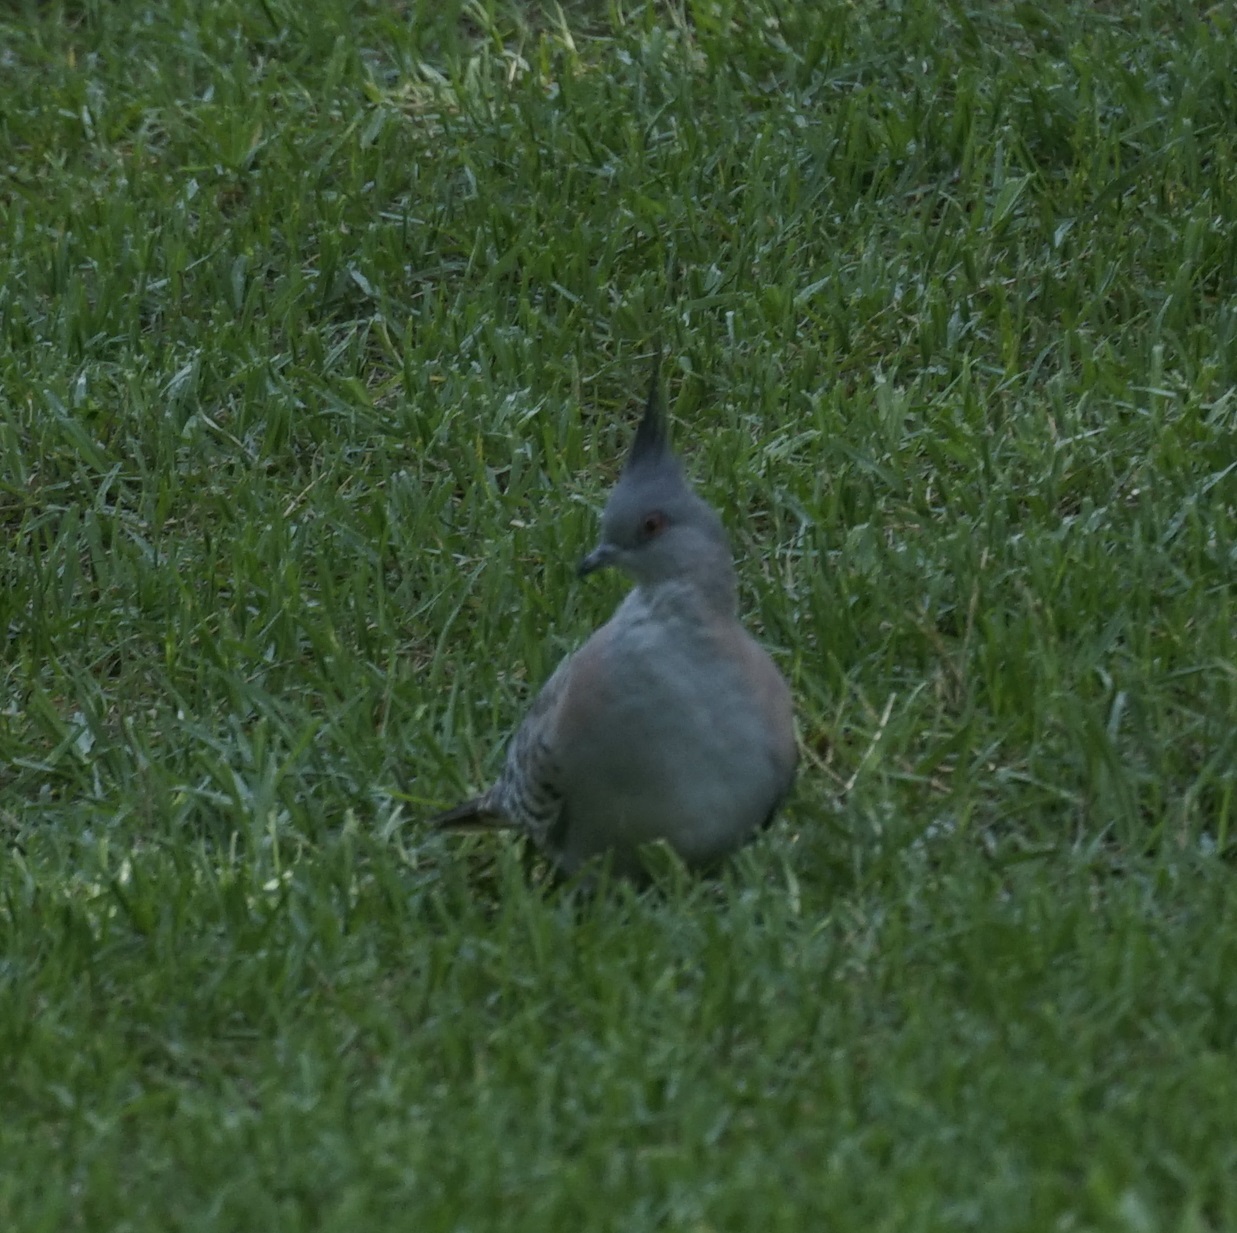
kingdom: Animalia
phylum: Chordata
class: Aves
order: Columbiformes
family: Columbidae
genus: Ocyphaps
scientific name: Ocyphaps lophotes
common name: Crested pigeon
